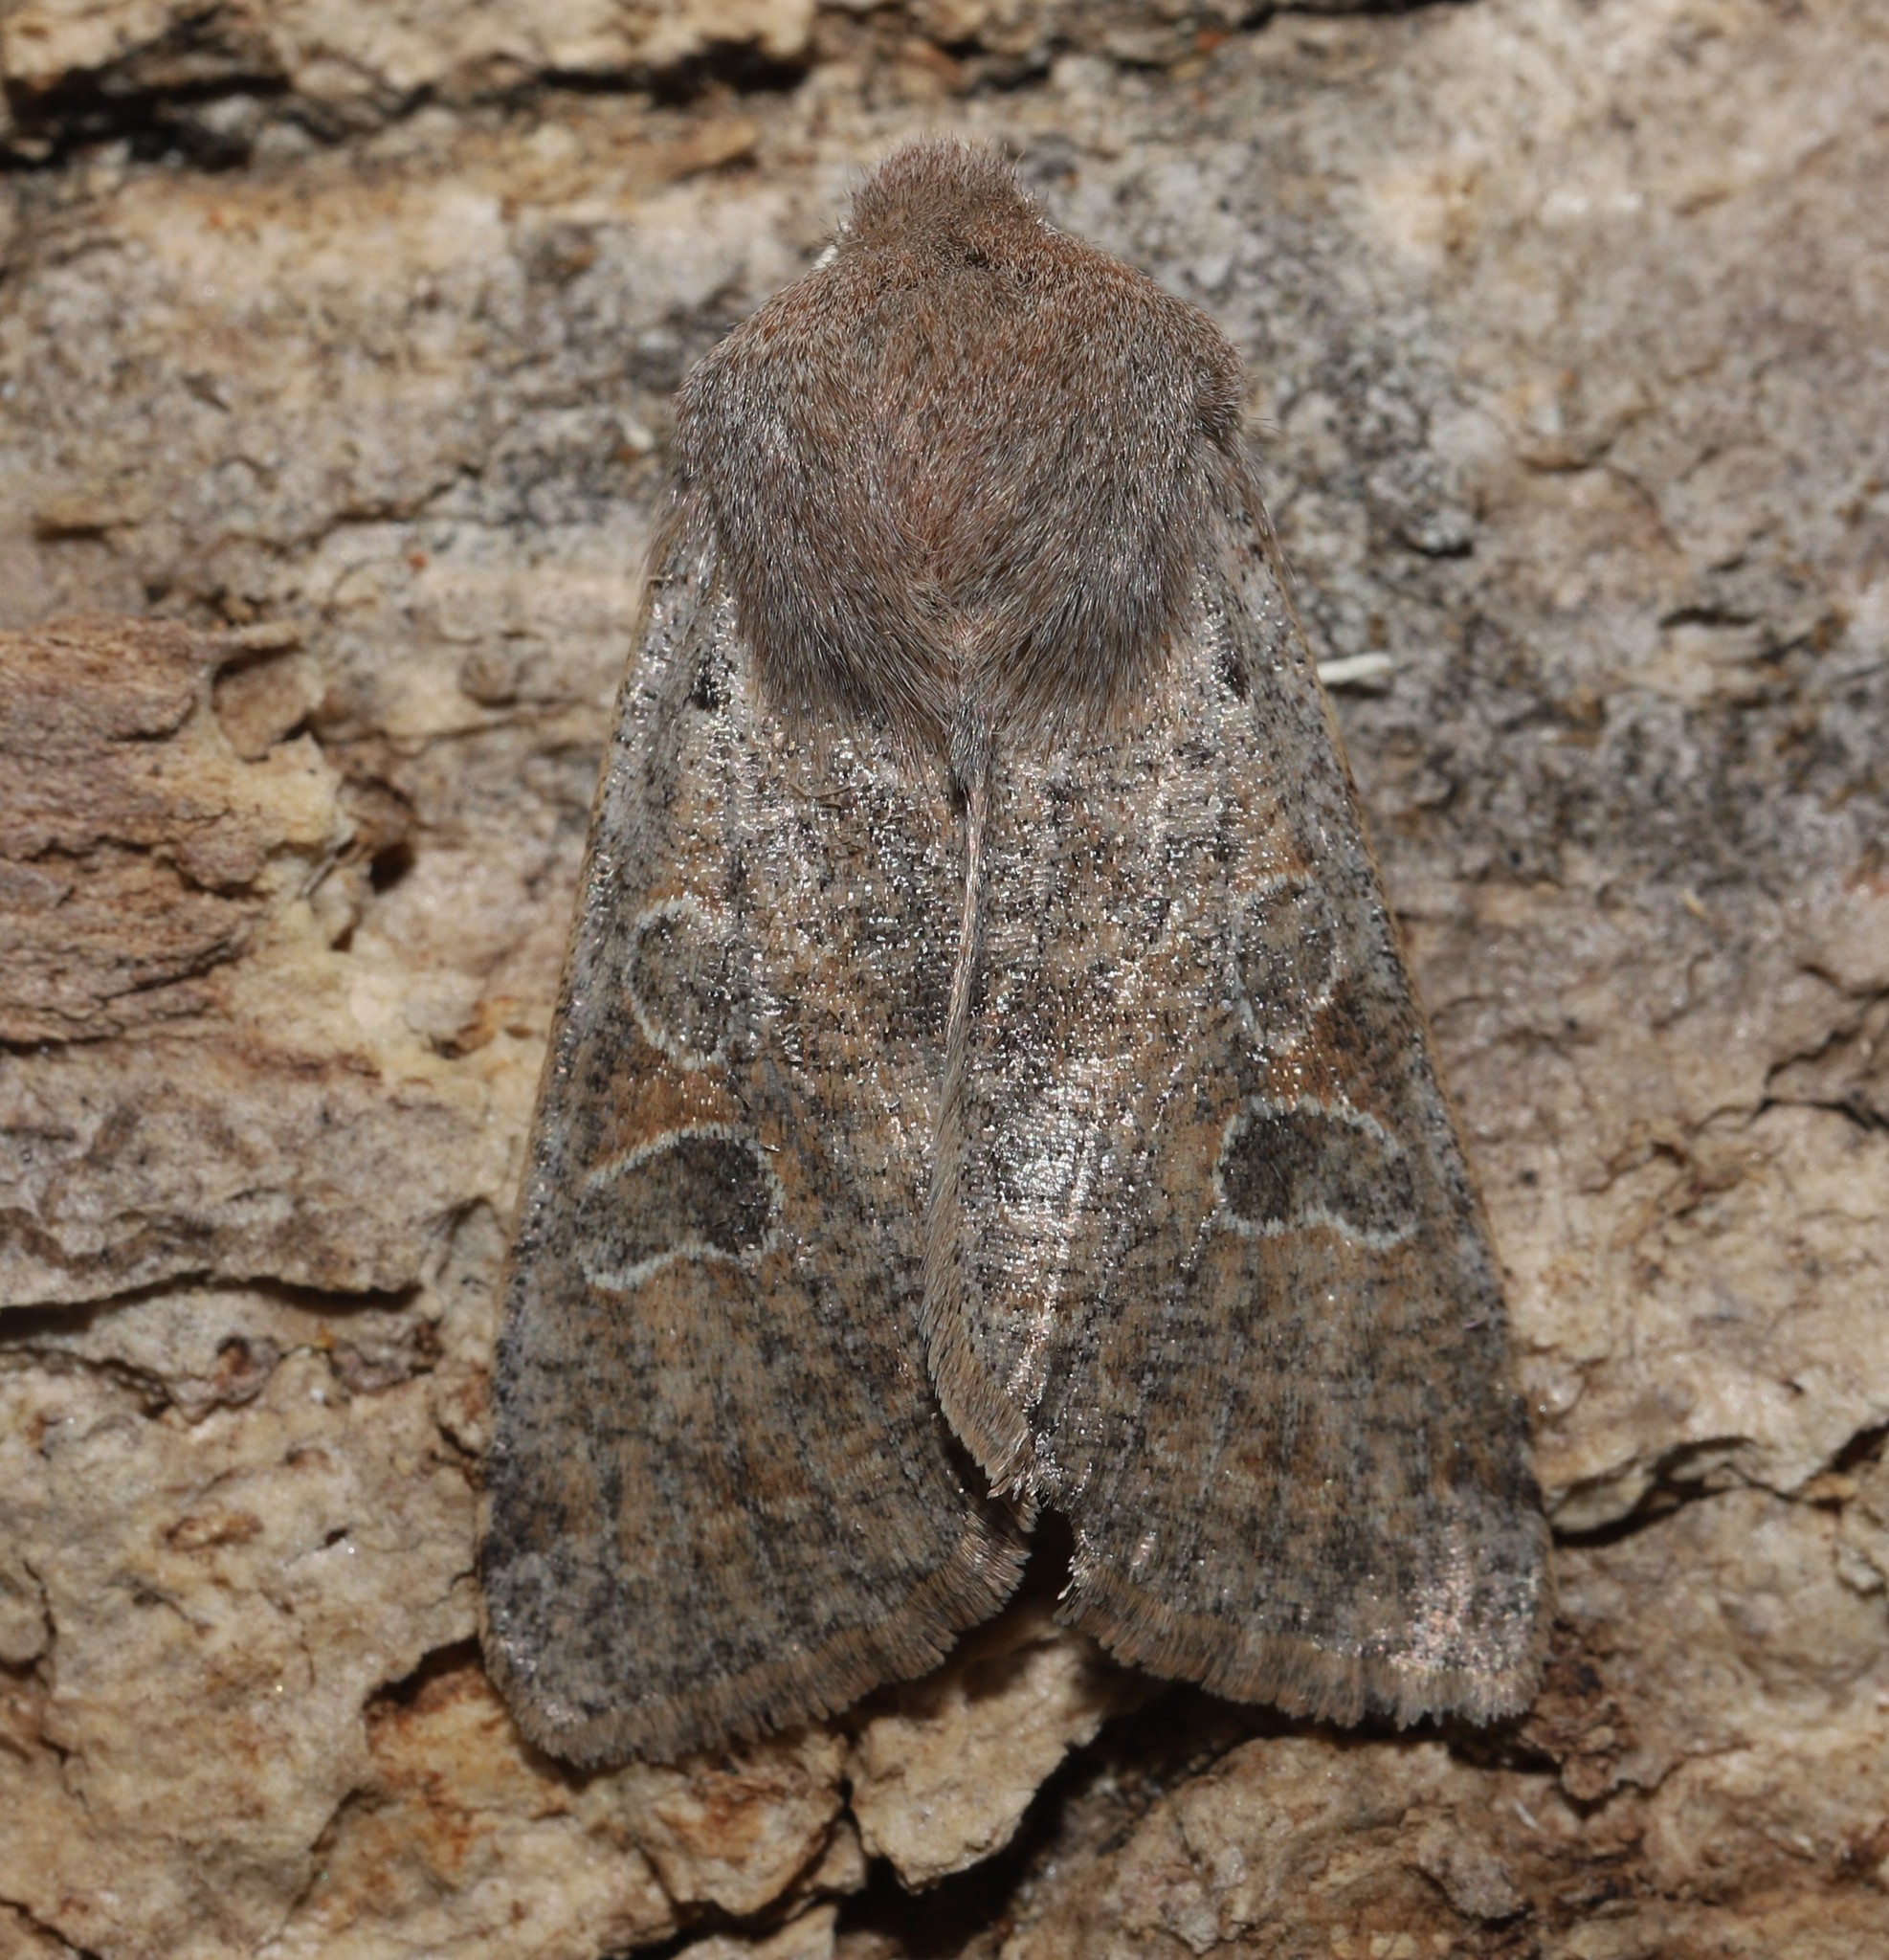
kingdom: Animalia
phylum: Arthropoda
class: Insecta
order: Lepidoptera
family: Noctuidae
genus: Orthosia
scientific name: Orthosia hibisci
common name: Green fruitworm
